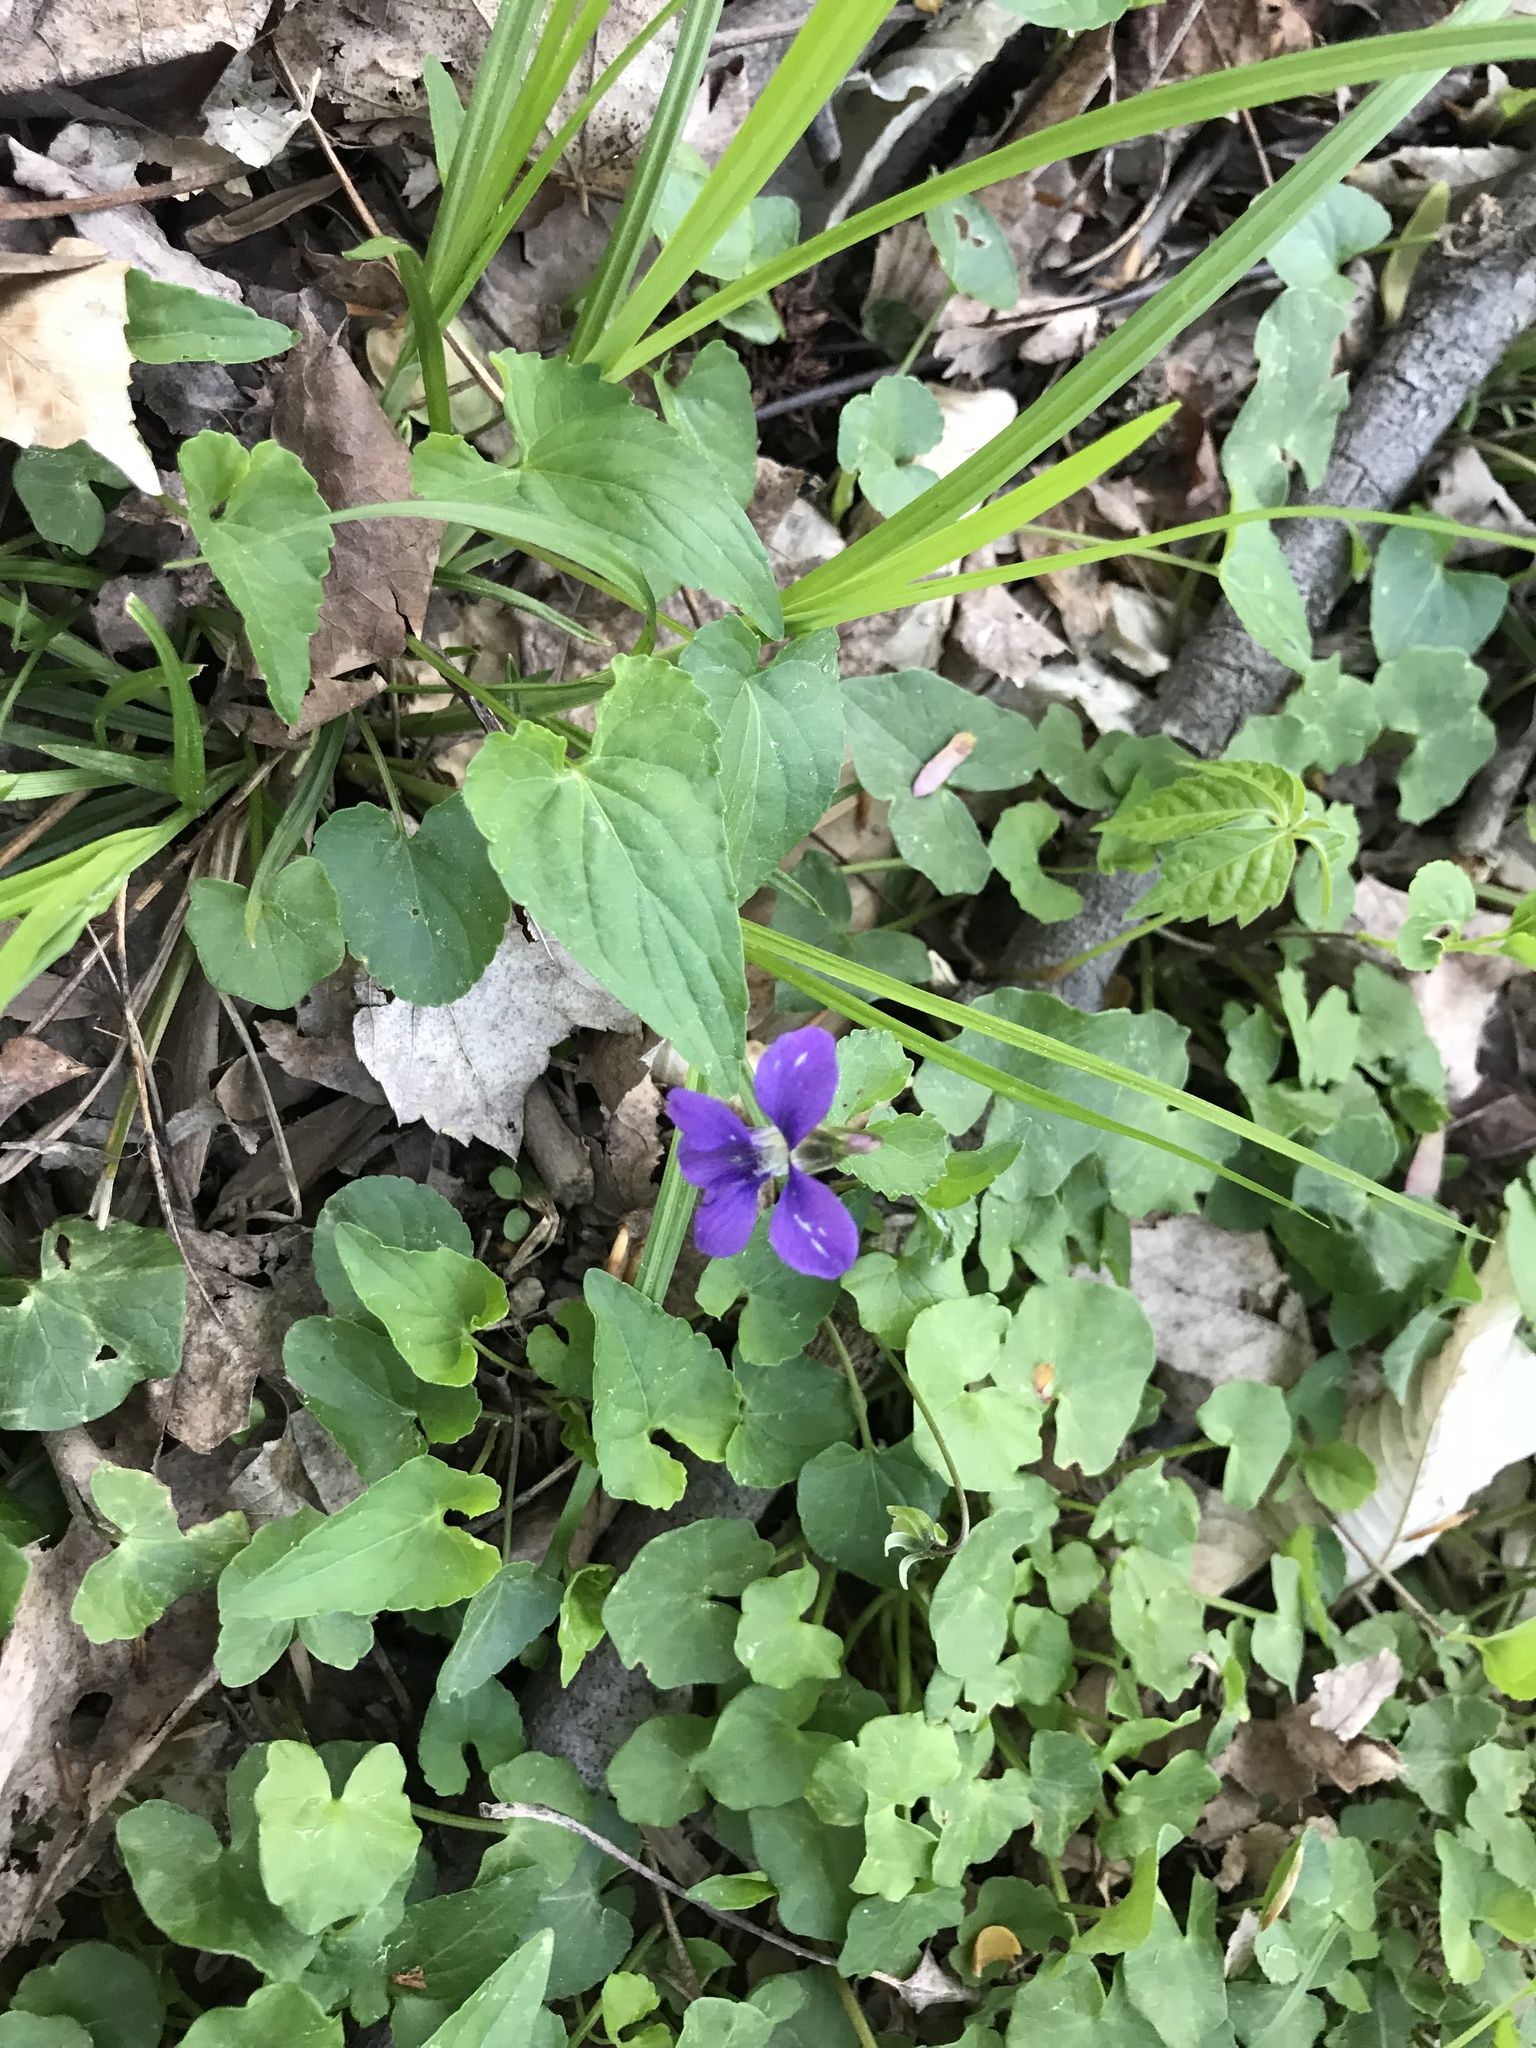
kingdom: Plantae
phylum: Tracheophyta
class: Magnoliopsida
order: Malpighiales
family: Violaceae
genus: Viola
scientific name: Viola sororia
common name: Dooryard violet
